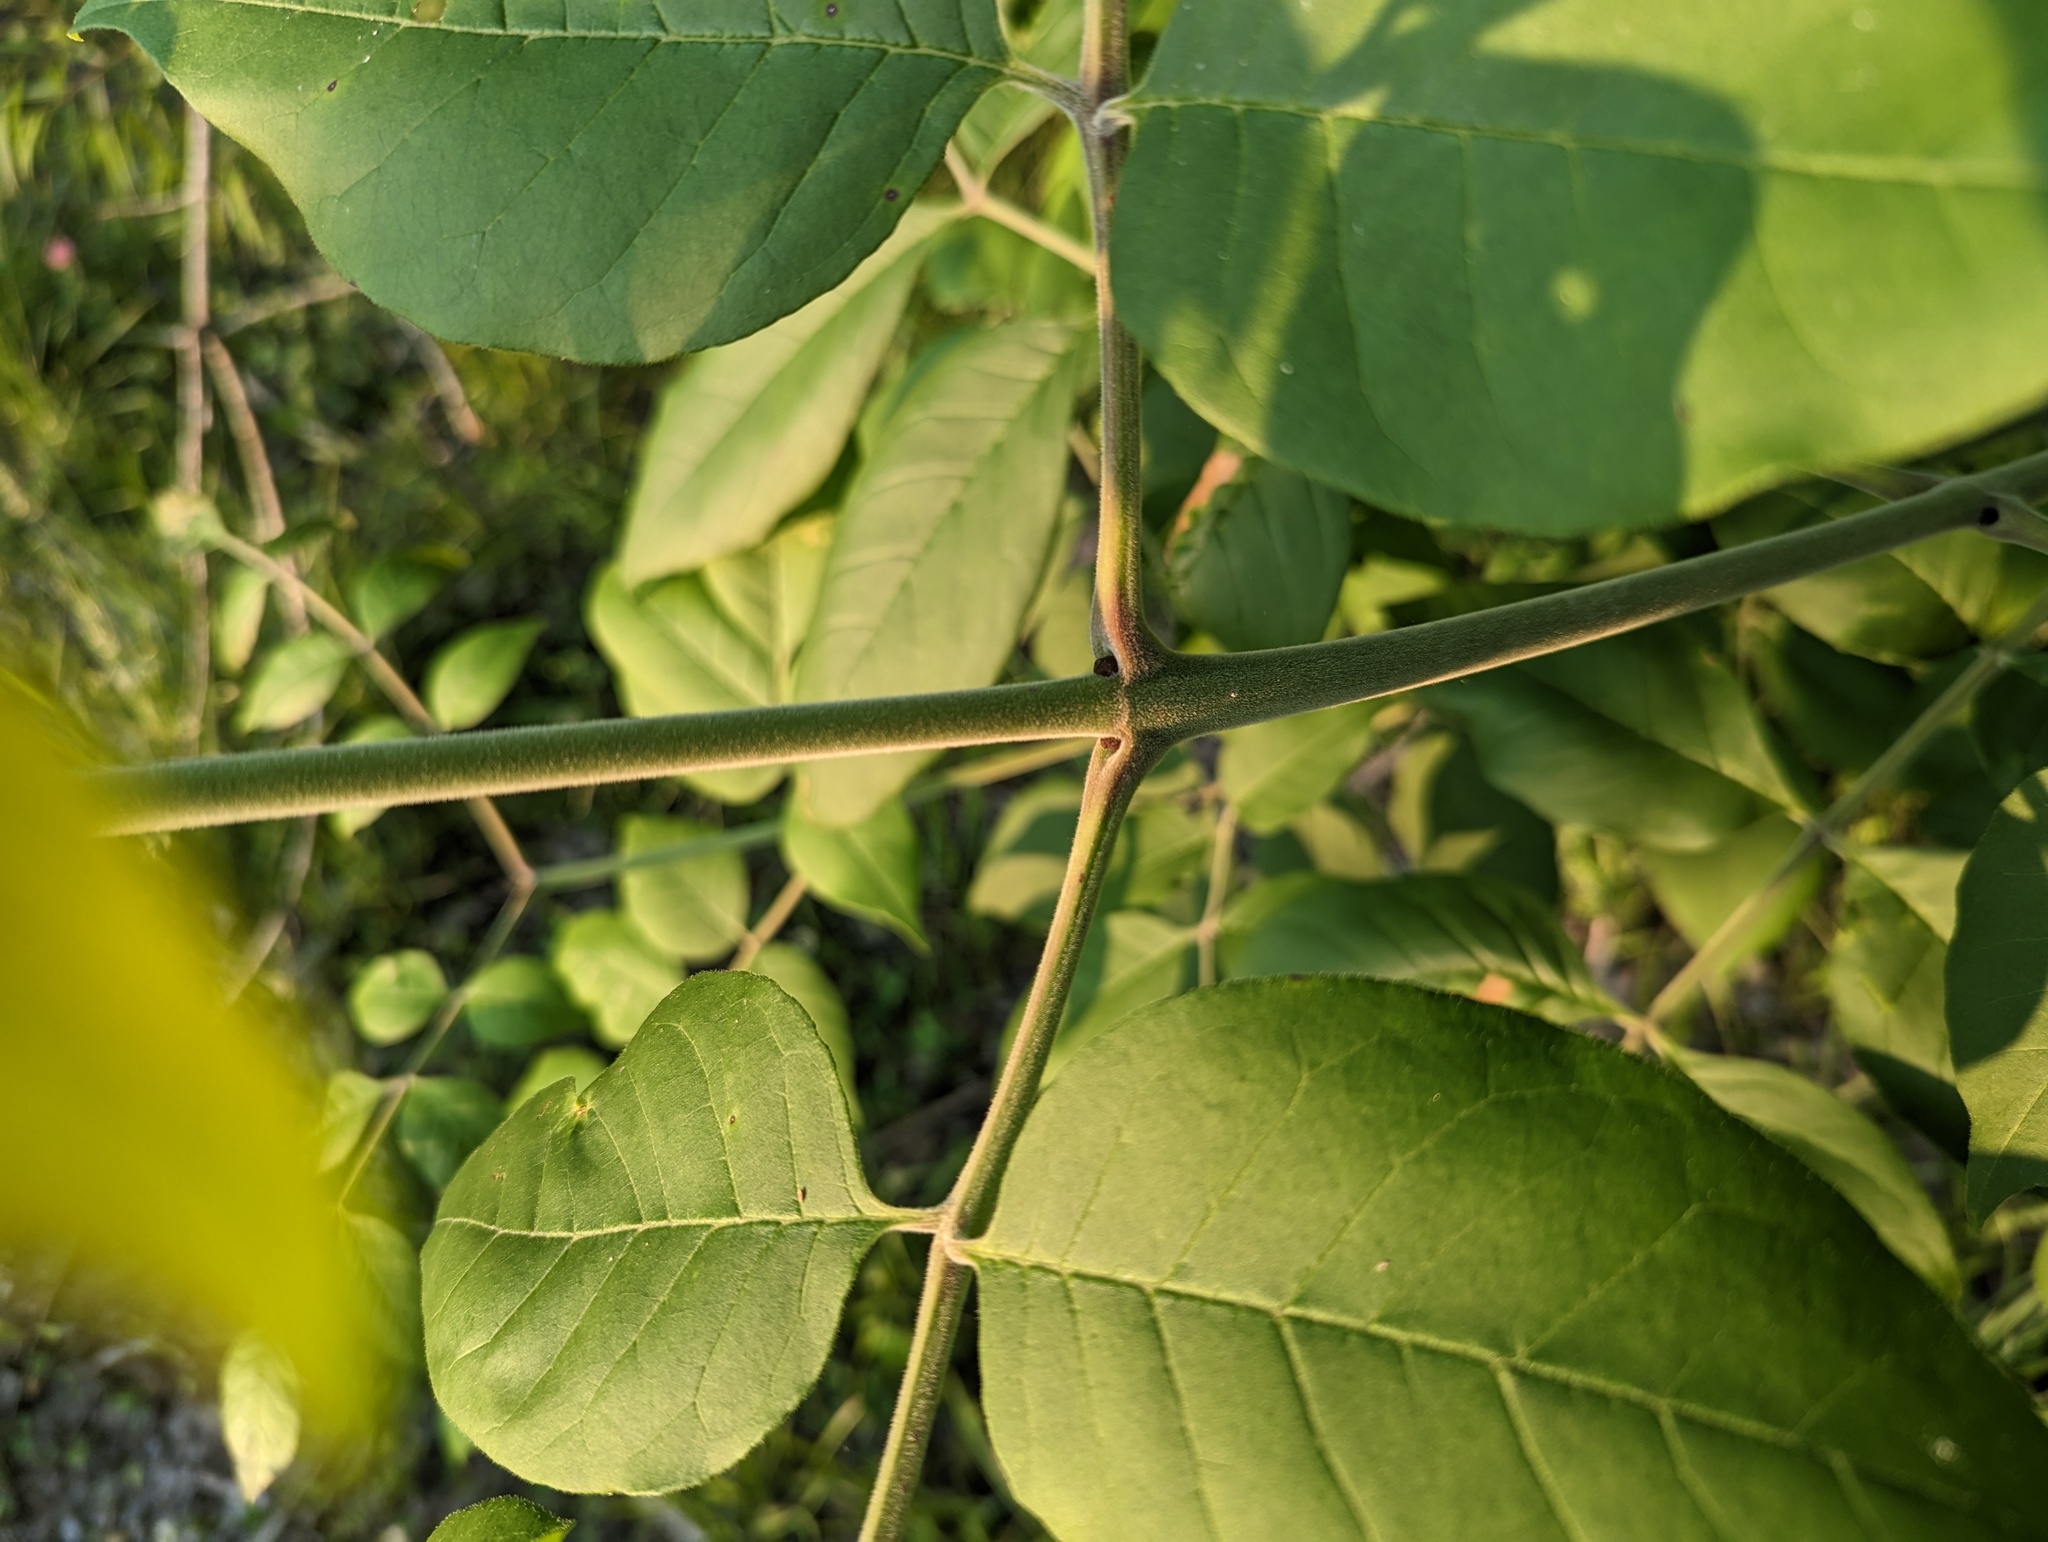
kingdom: Plantae
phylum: Tracheophyta
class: Magnoliopsida
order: Lamiales
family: Oleaceae
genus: Fraxinus
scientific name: Fraxinus profunda
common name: Pumpkin ash
